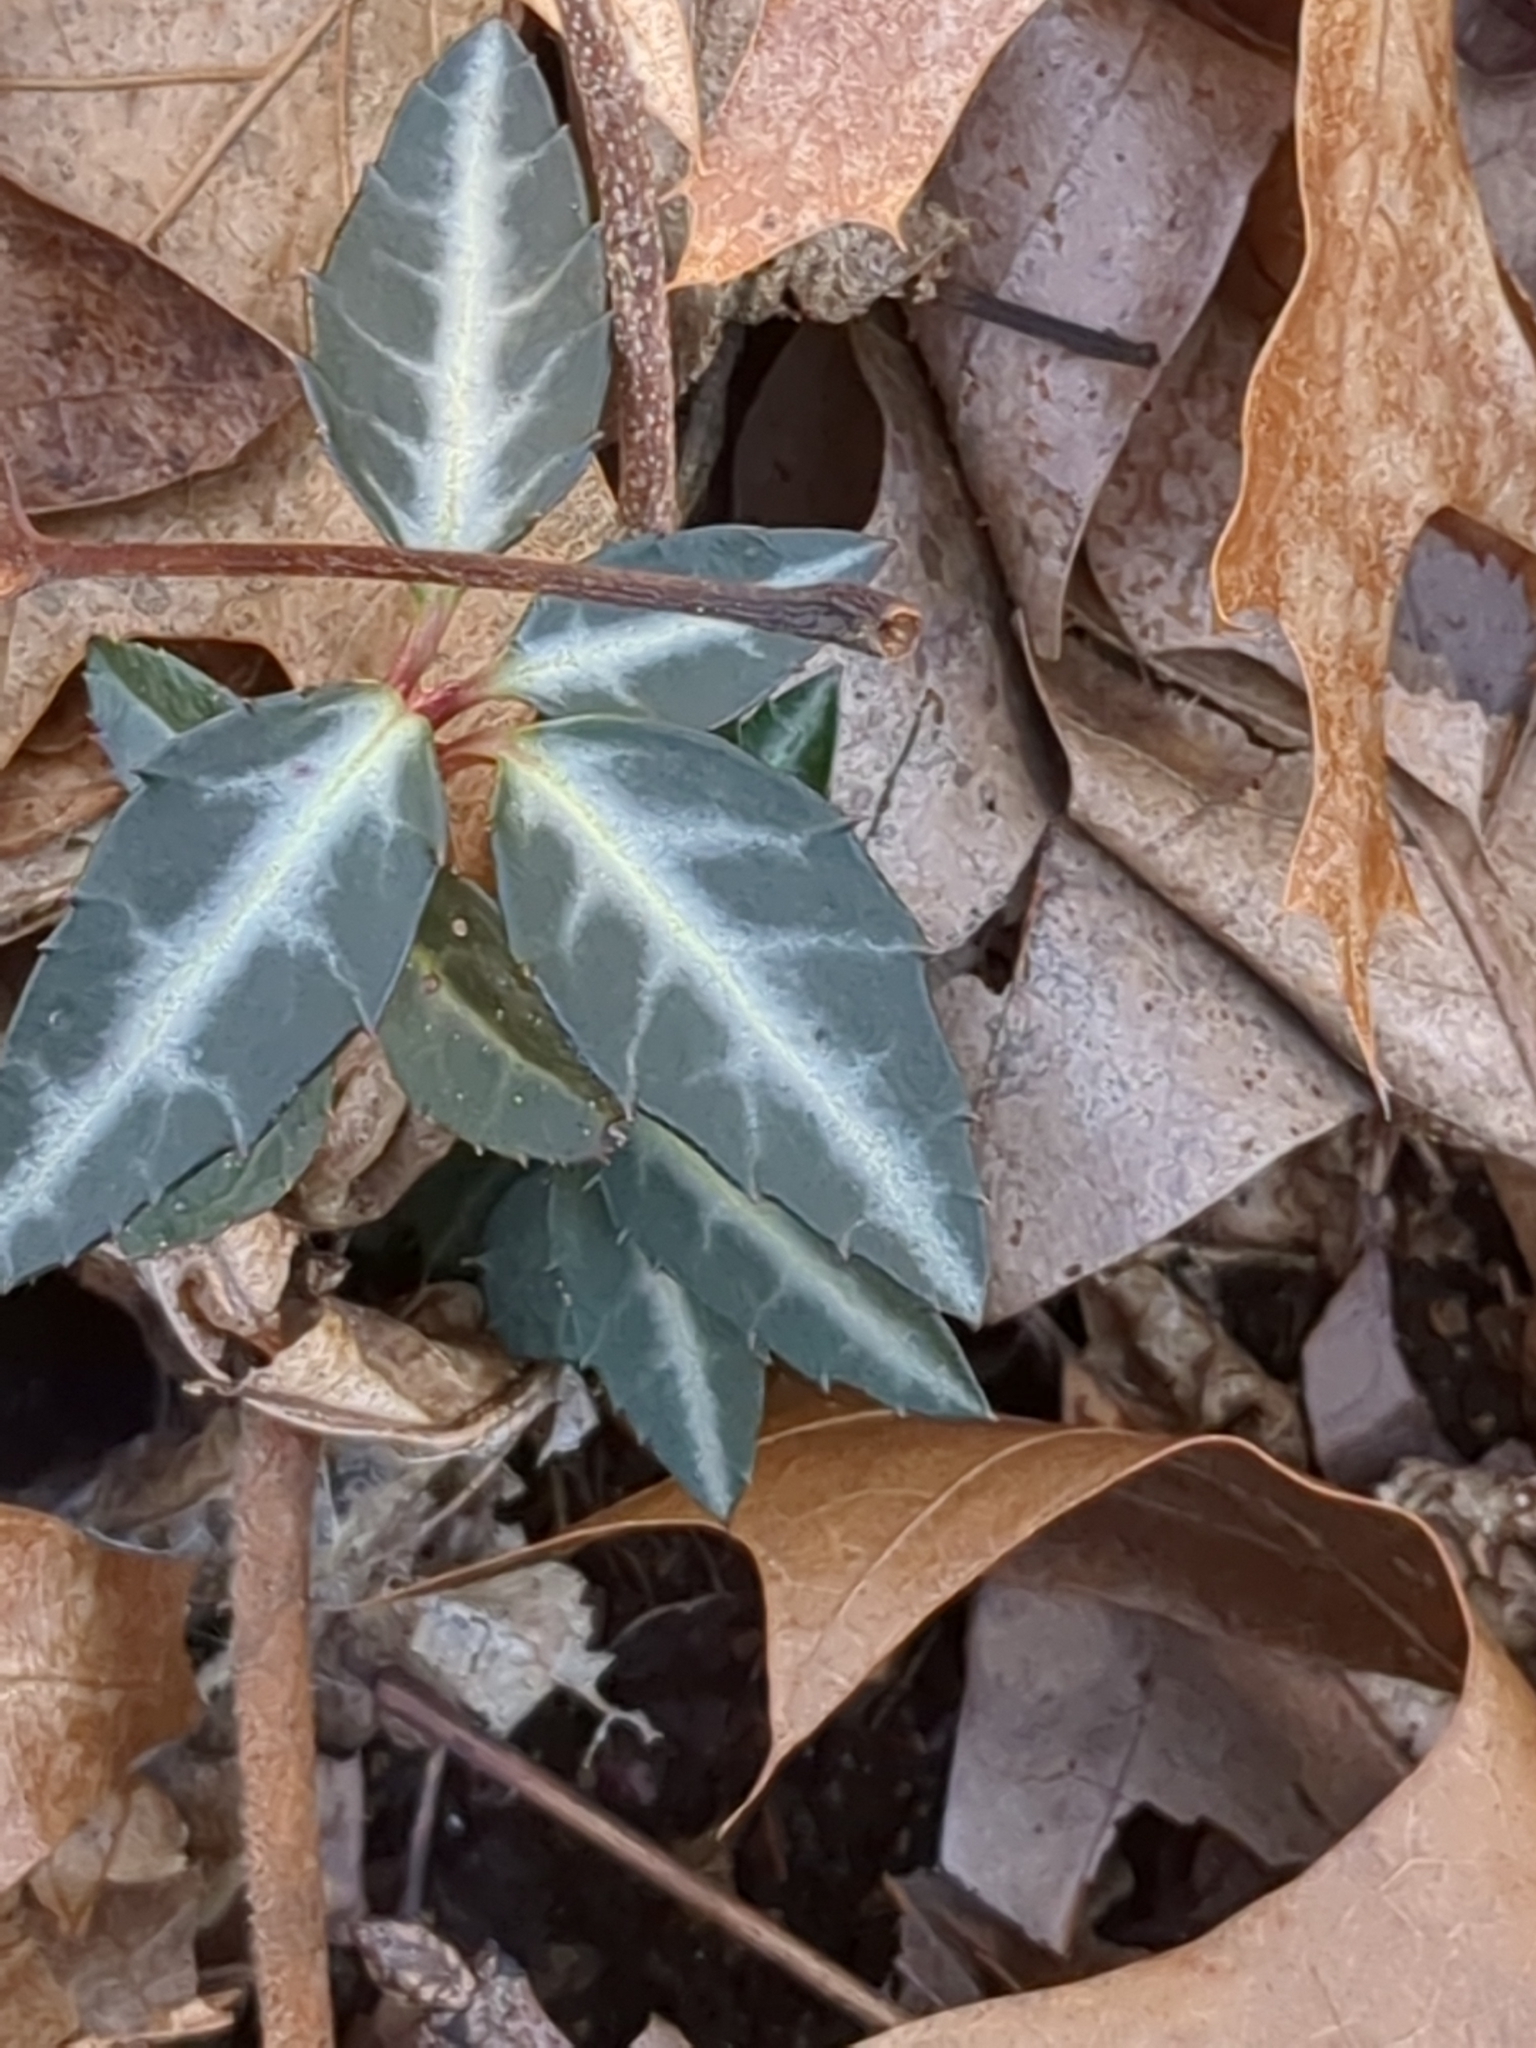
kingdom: Plantae
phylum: Tracheophyta
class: Magnoliopsida
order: Ericales
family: Ericaceae
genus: Chimaphila
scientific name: Chimaphila maculata
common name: Spotted pipsissewa
